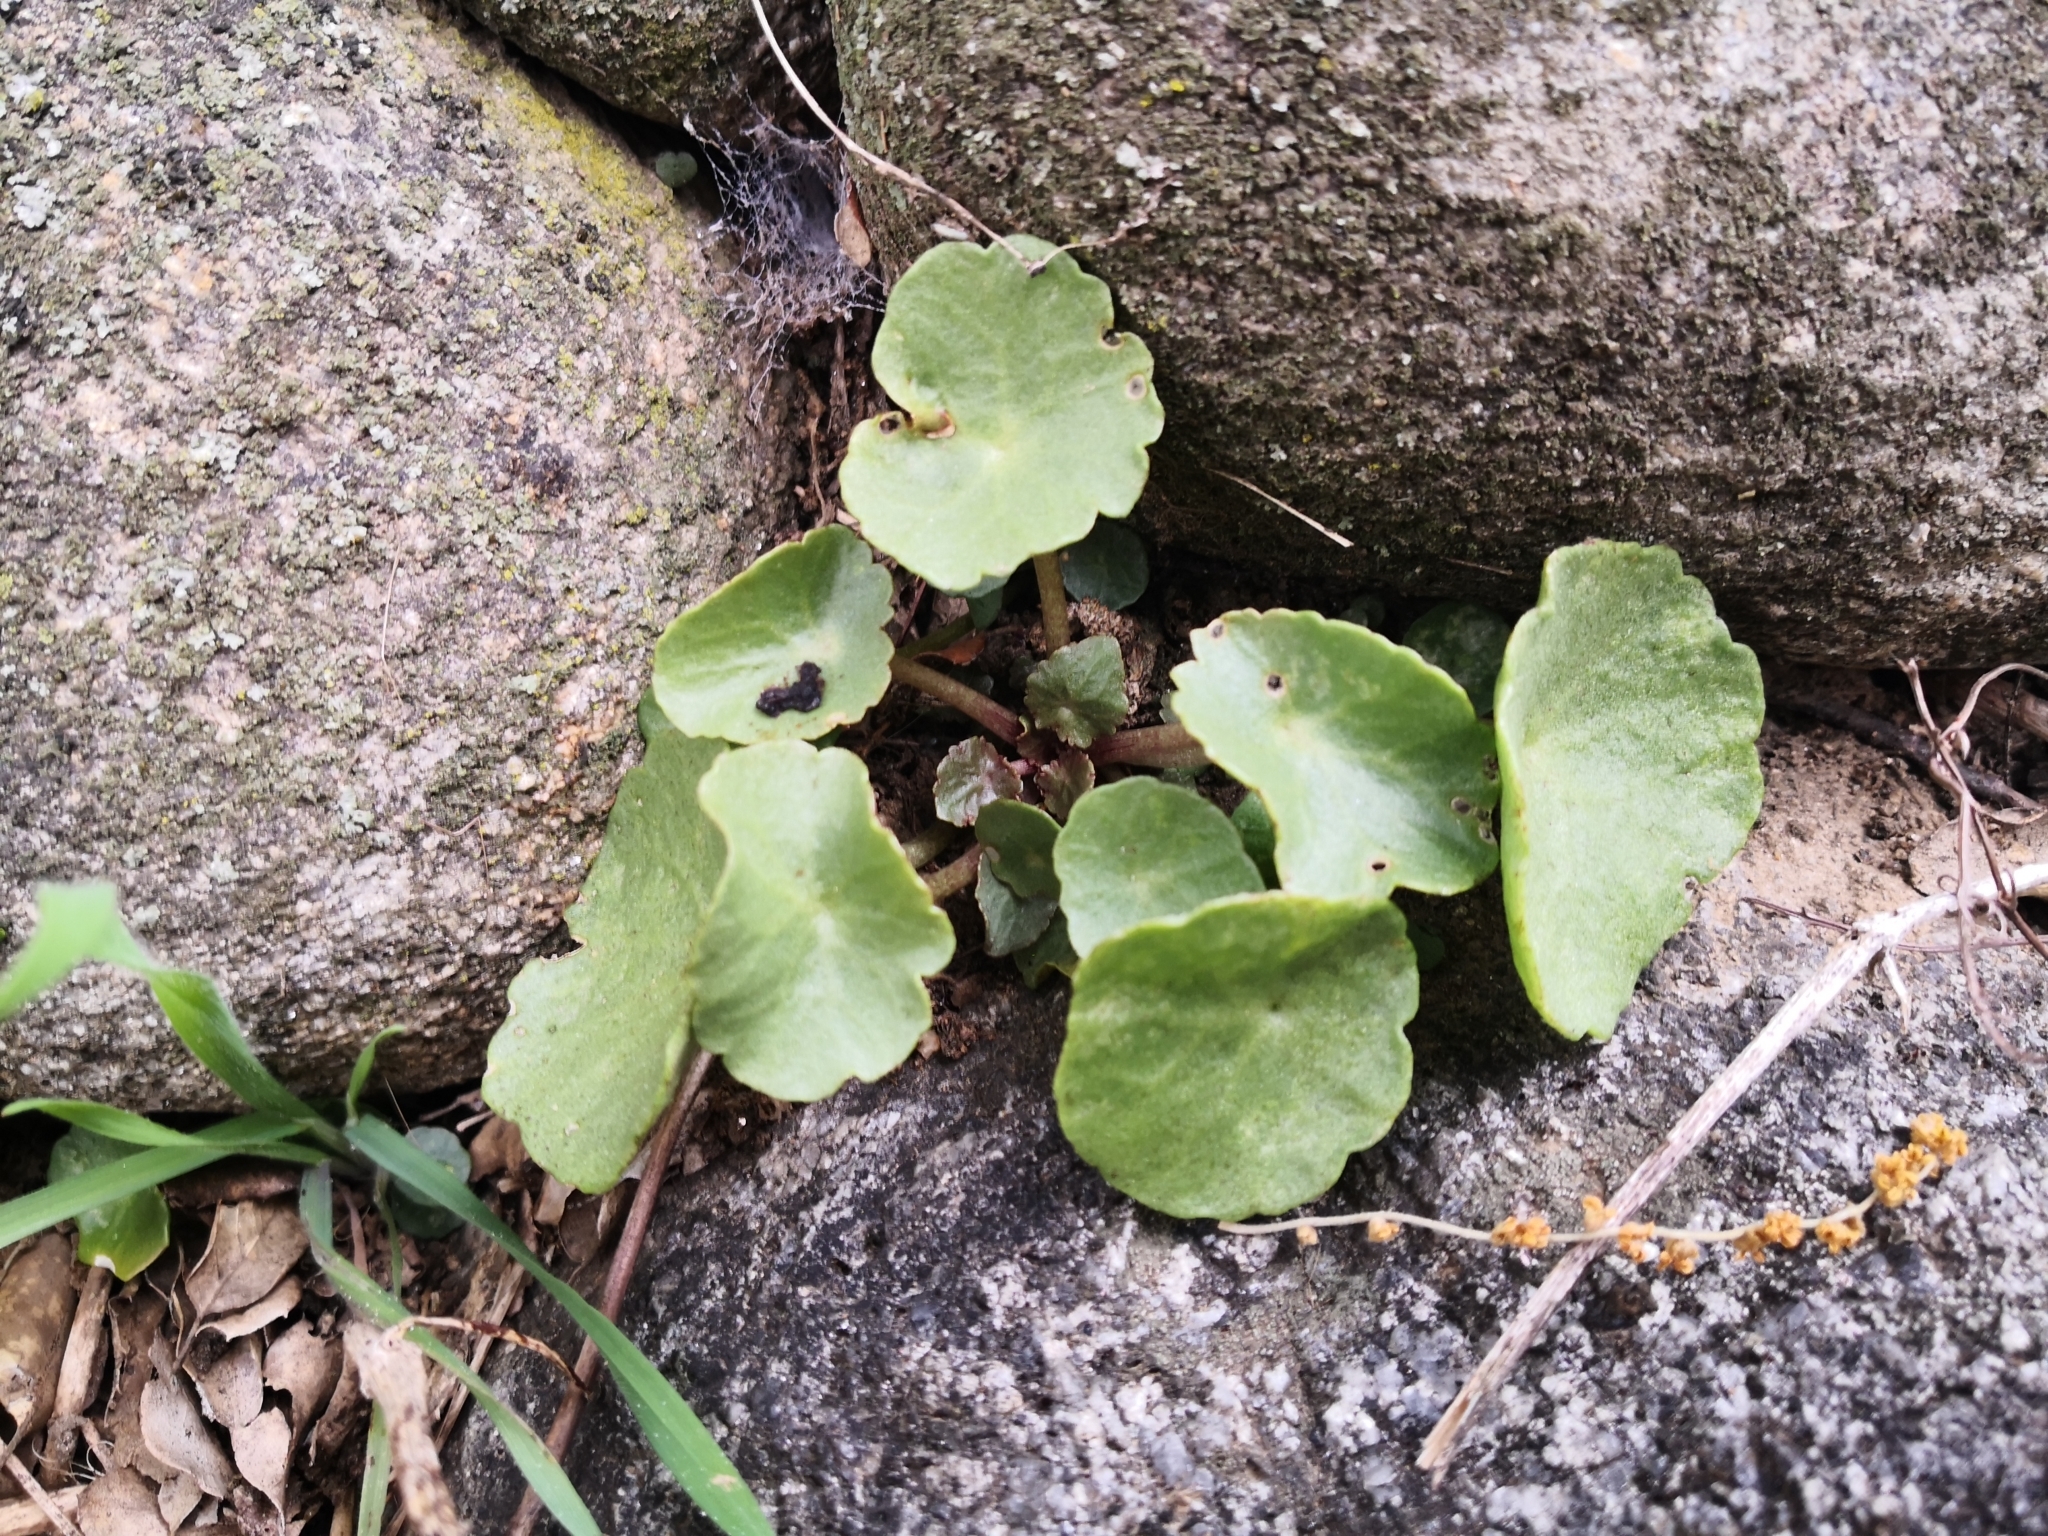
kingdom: Plantae
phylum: Tracheophyta
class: Magnoliopsida
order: Saxifragales
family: Crassulaceae
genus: Umbilicus
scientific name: Umbilicus rupestris
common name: Navelwort
